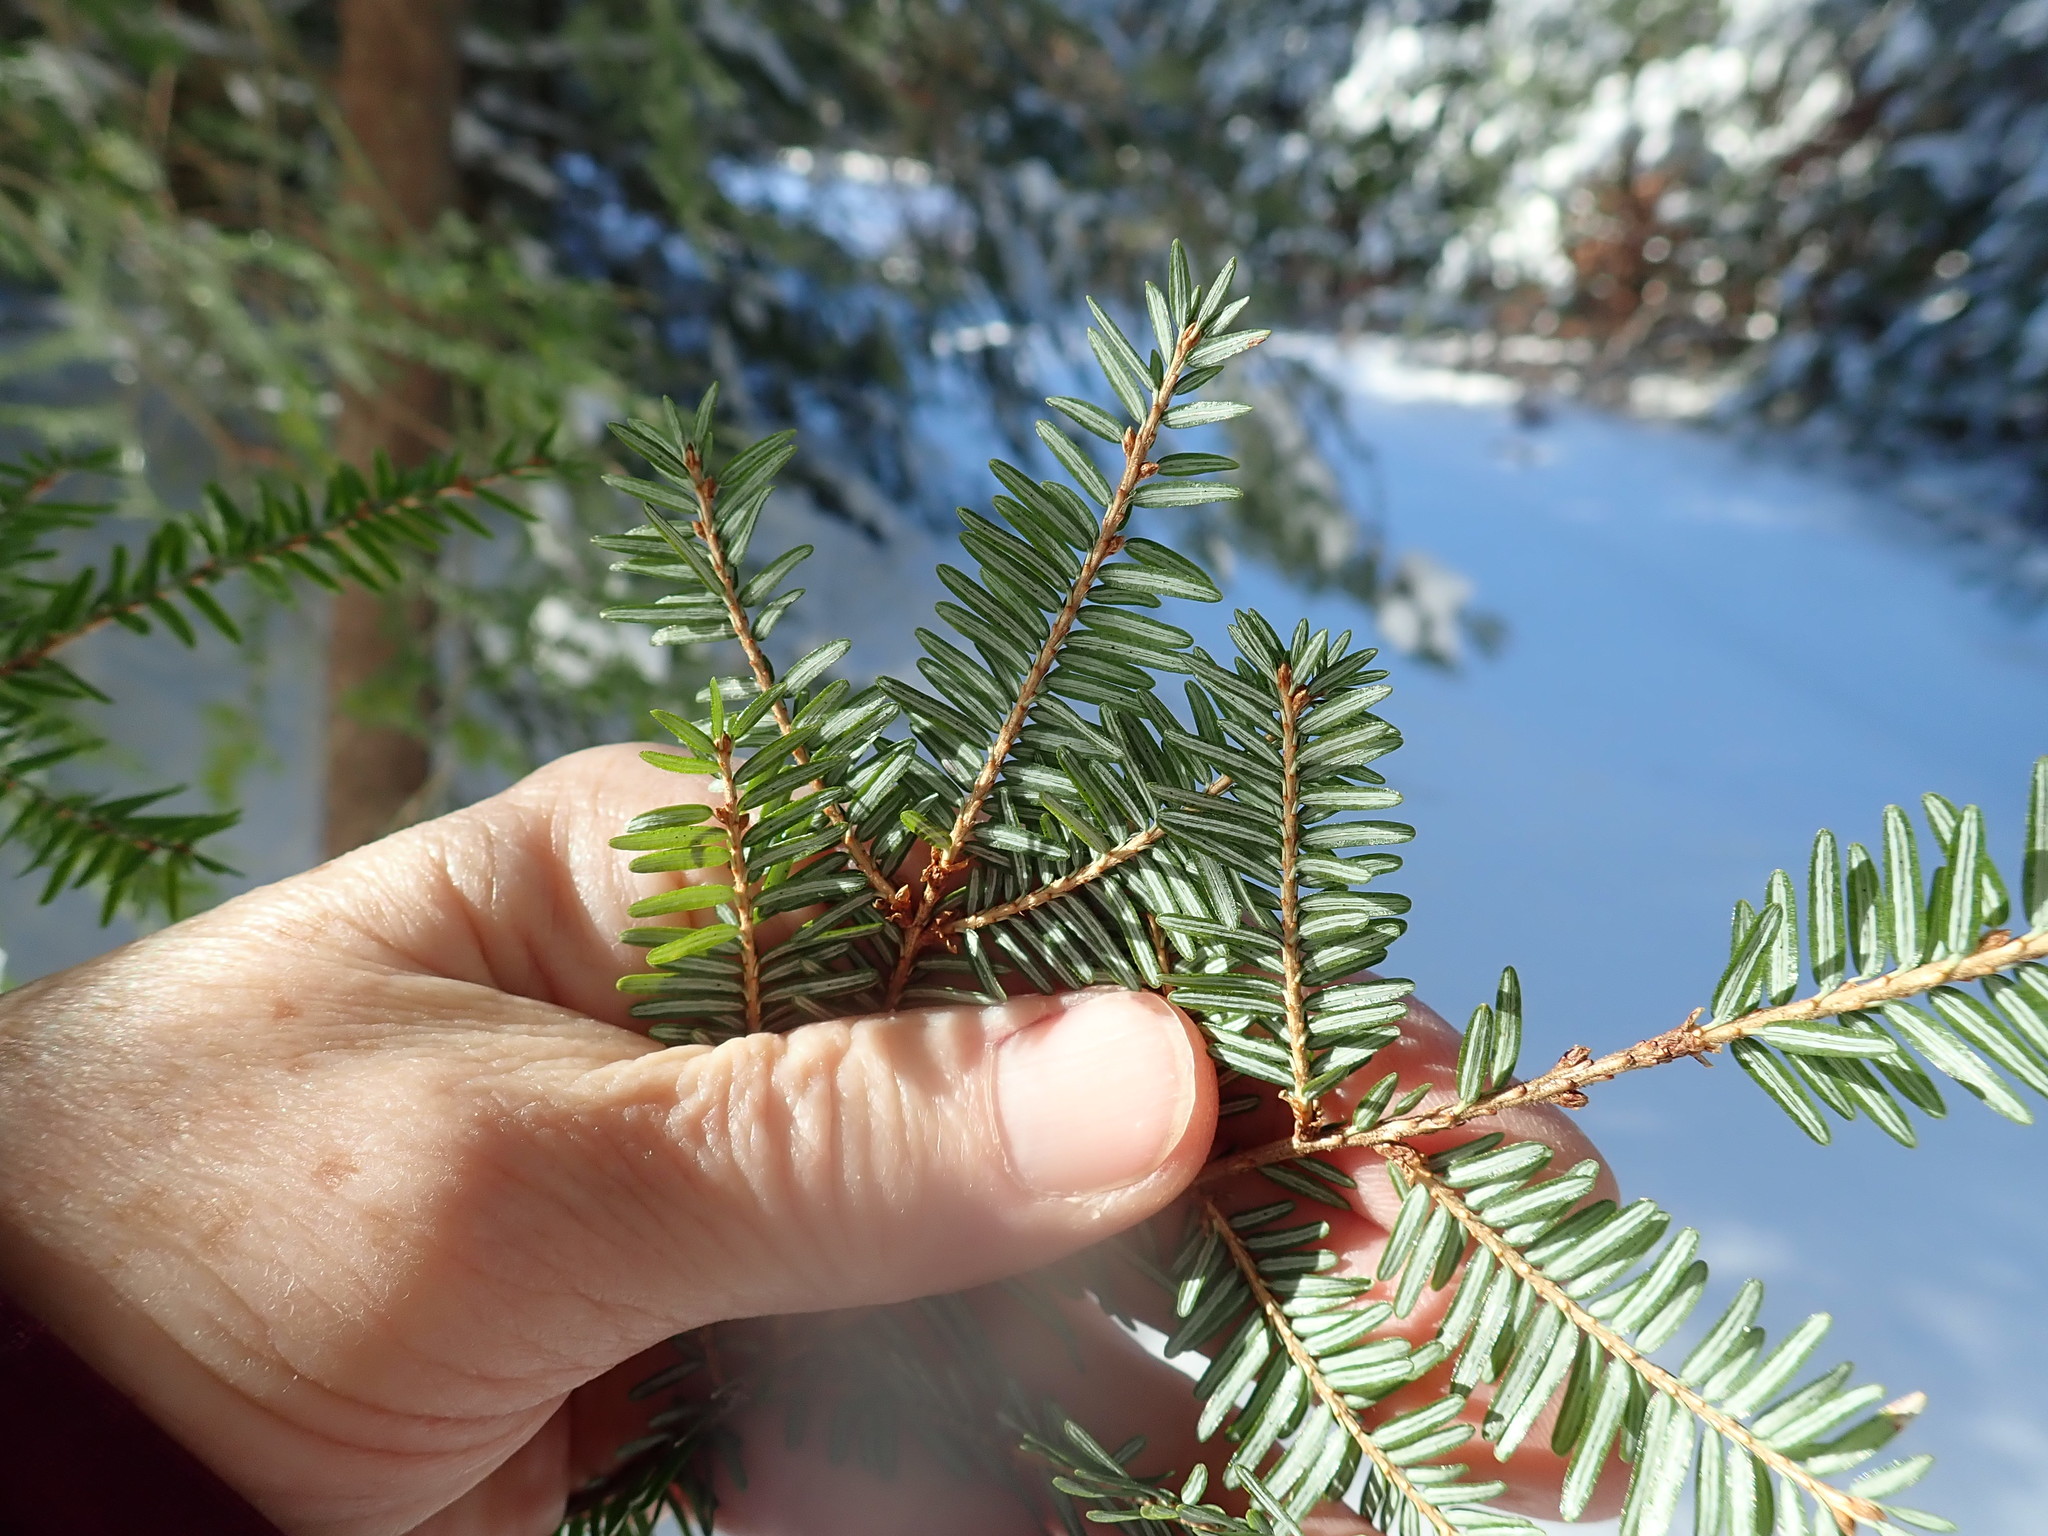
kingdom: Plantae
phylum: Tracheophyta
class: Pinopsida
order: Pinales
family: Pinaceae
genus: Tsuga
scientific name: Tsuga canadensis
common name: Eastern hemlock
